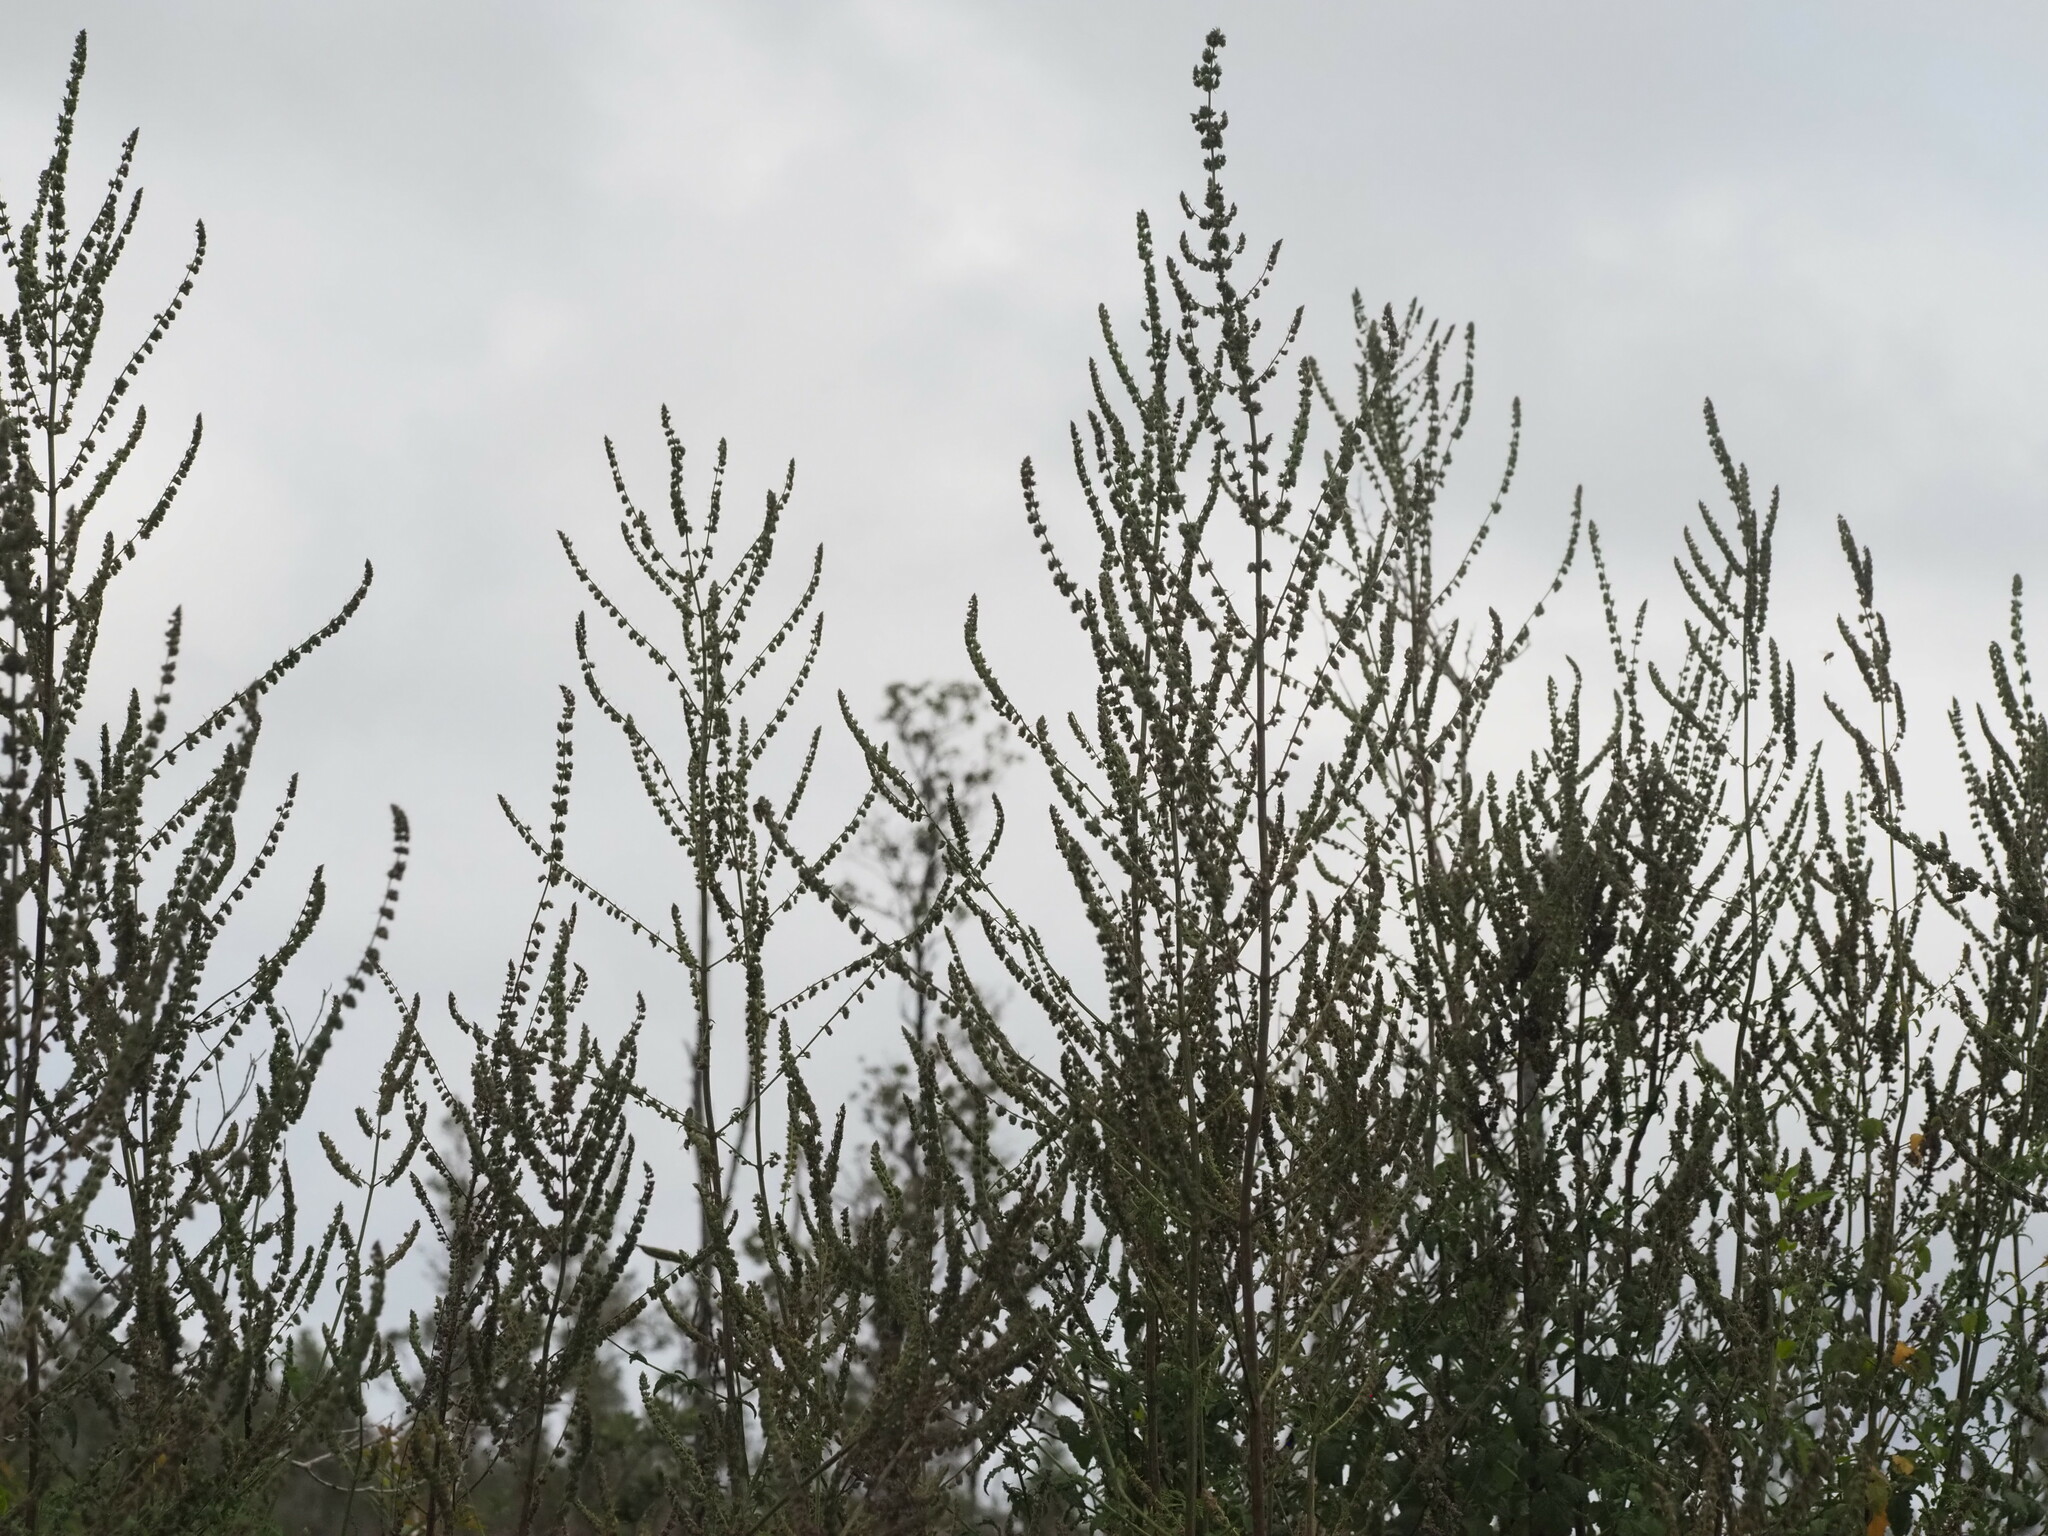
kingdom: Plantae
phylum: Tracheophyta
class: Magnoliopsida
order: Lamiales
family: Lamiaceae
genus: Mesosphaerum
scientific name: Mesosphaerum pectinatum
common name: Comb hyptis
